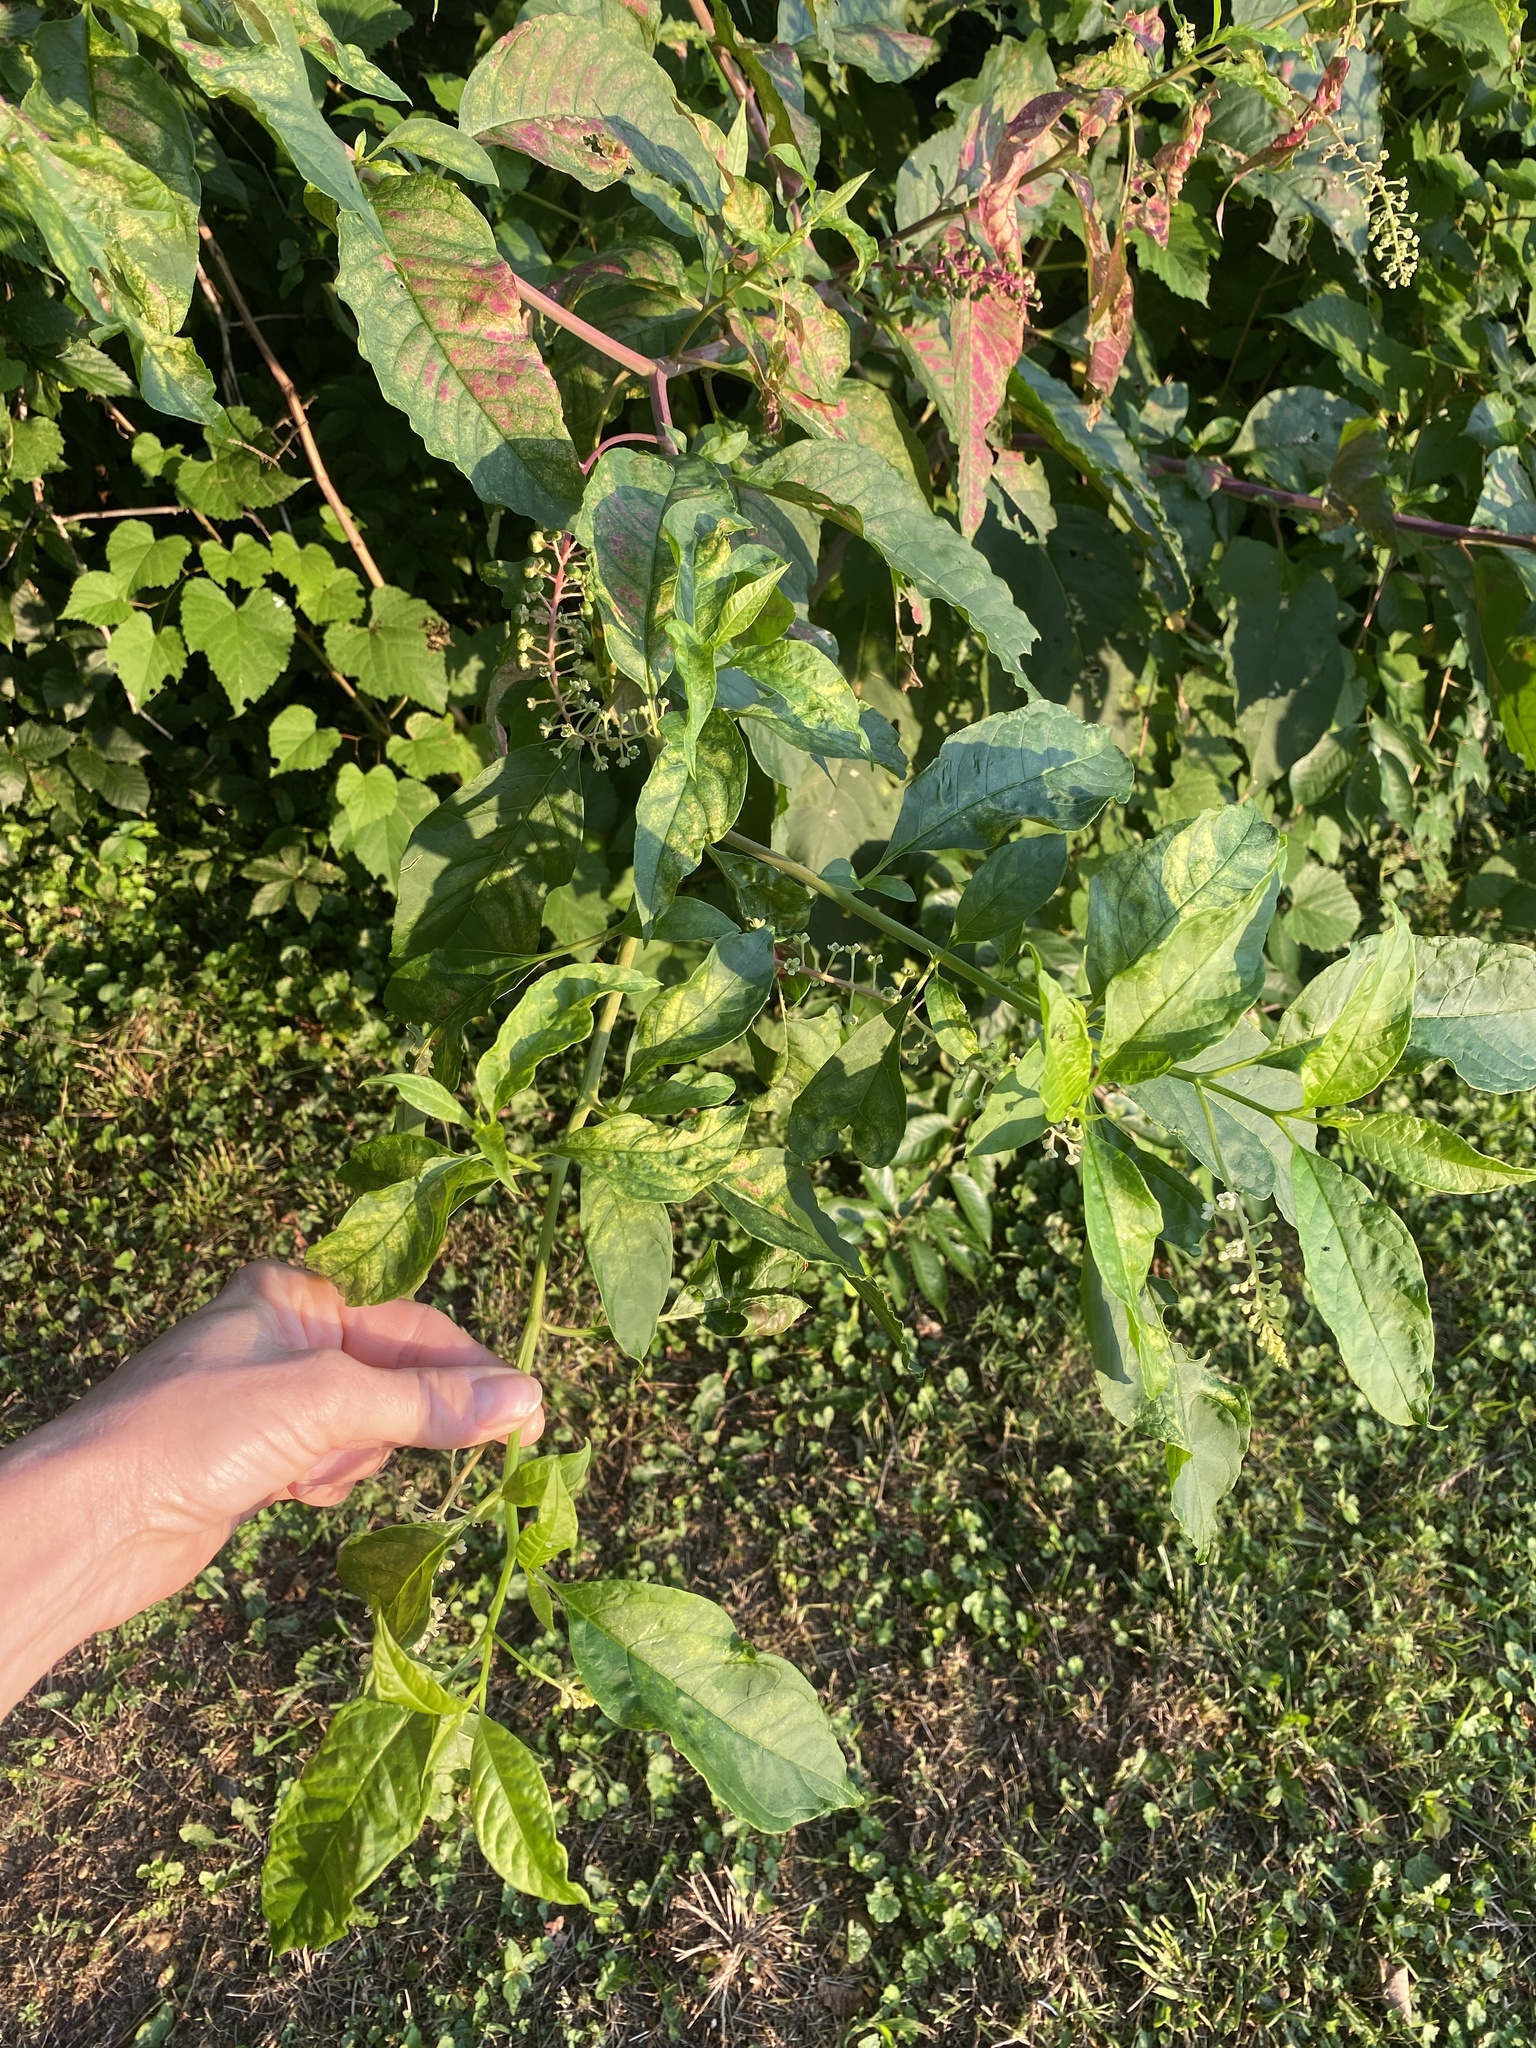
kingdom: Plantae
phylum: Tracheophyta
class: Magnoliopsida
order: Caryophyllales
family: Phytolaccaceae
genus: Phytolacca
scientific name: Phytolacca americana
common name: American pokeweed
